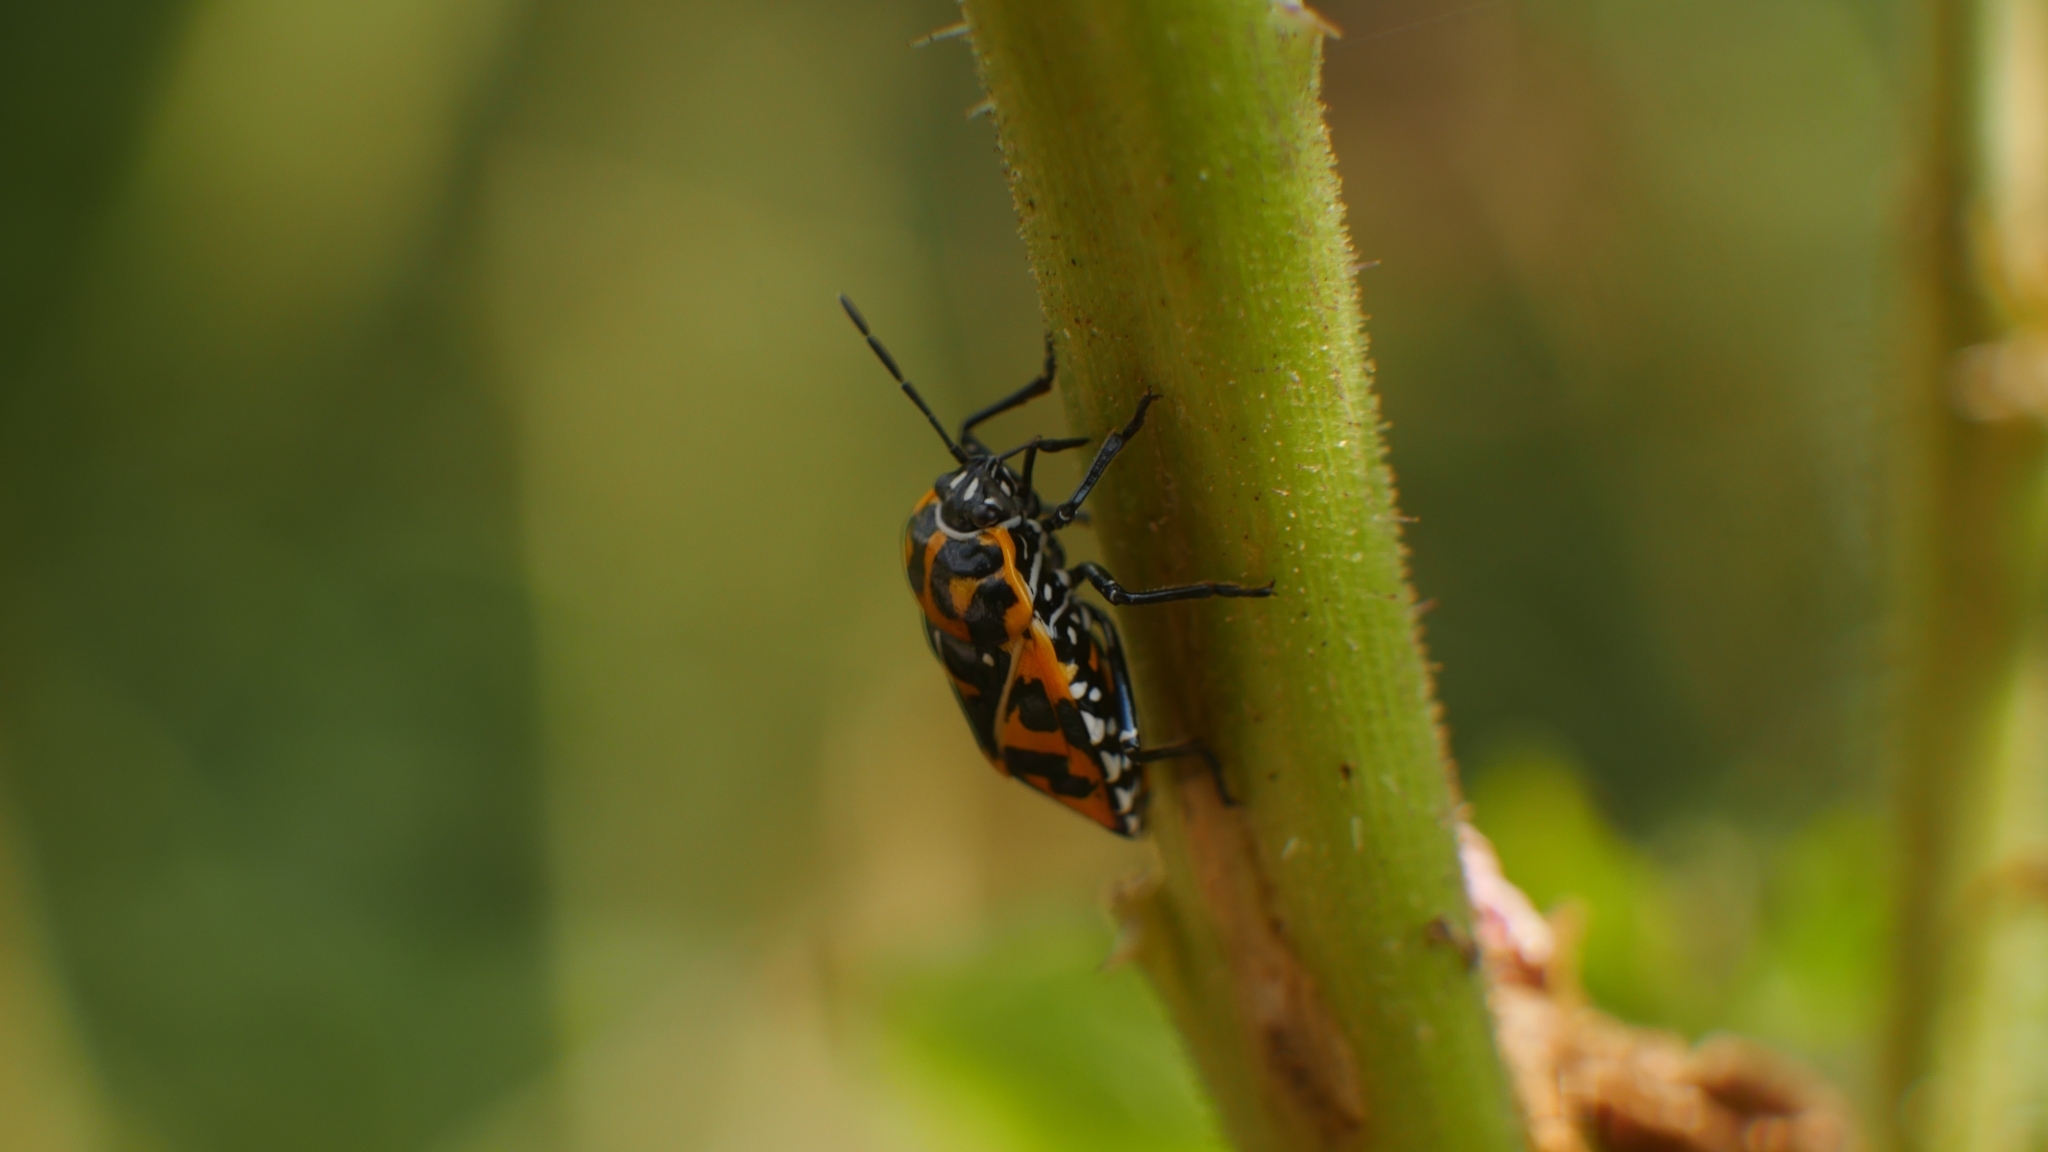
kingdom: Animalia
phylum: Arthropoda
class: Insecta
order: Hemiptera
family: Pentatomidae
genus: Murgantia
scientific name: Murgantia histrionica
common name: Harlequin bug
